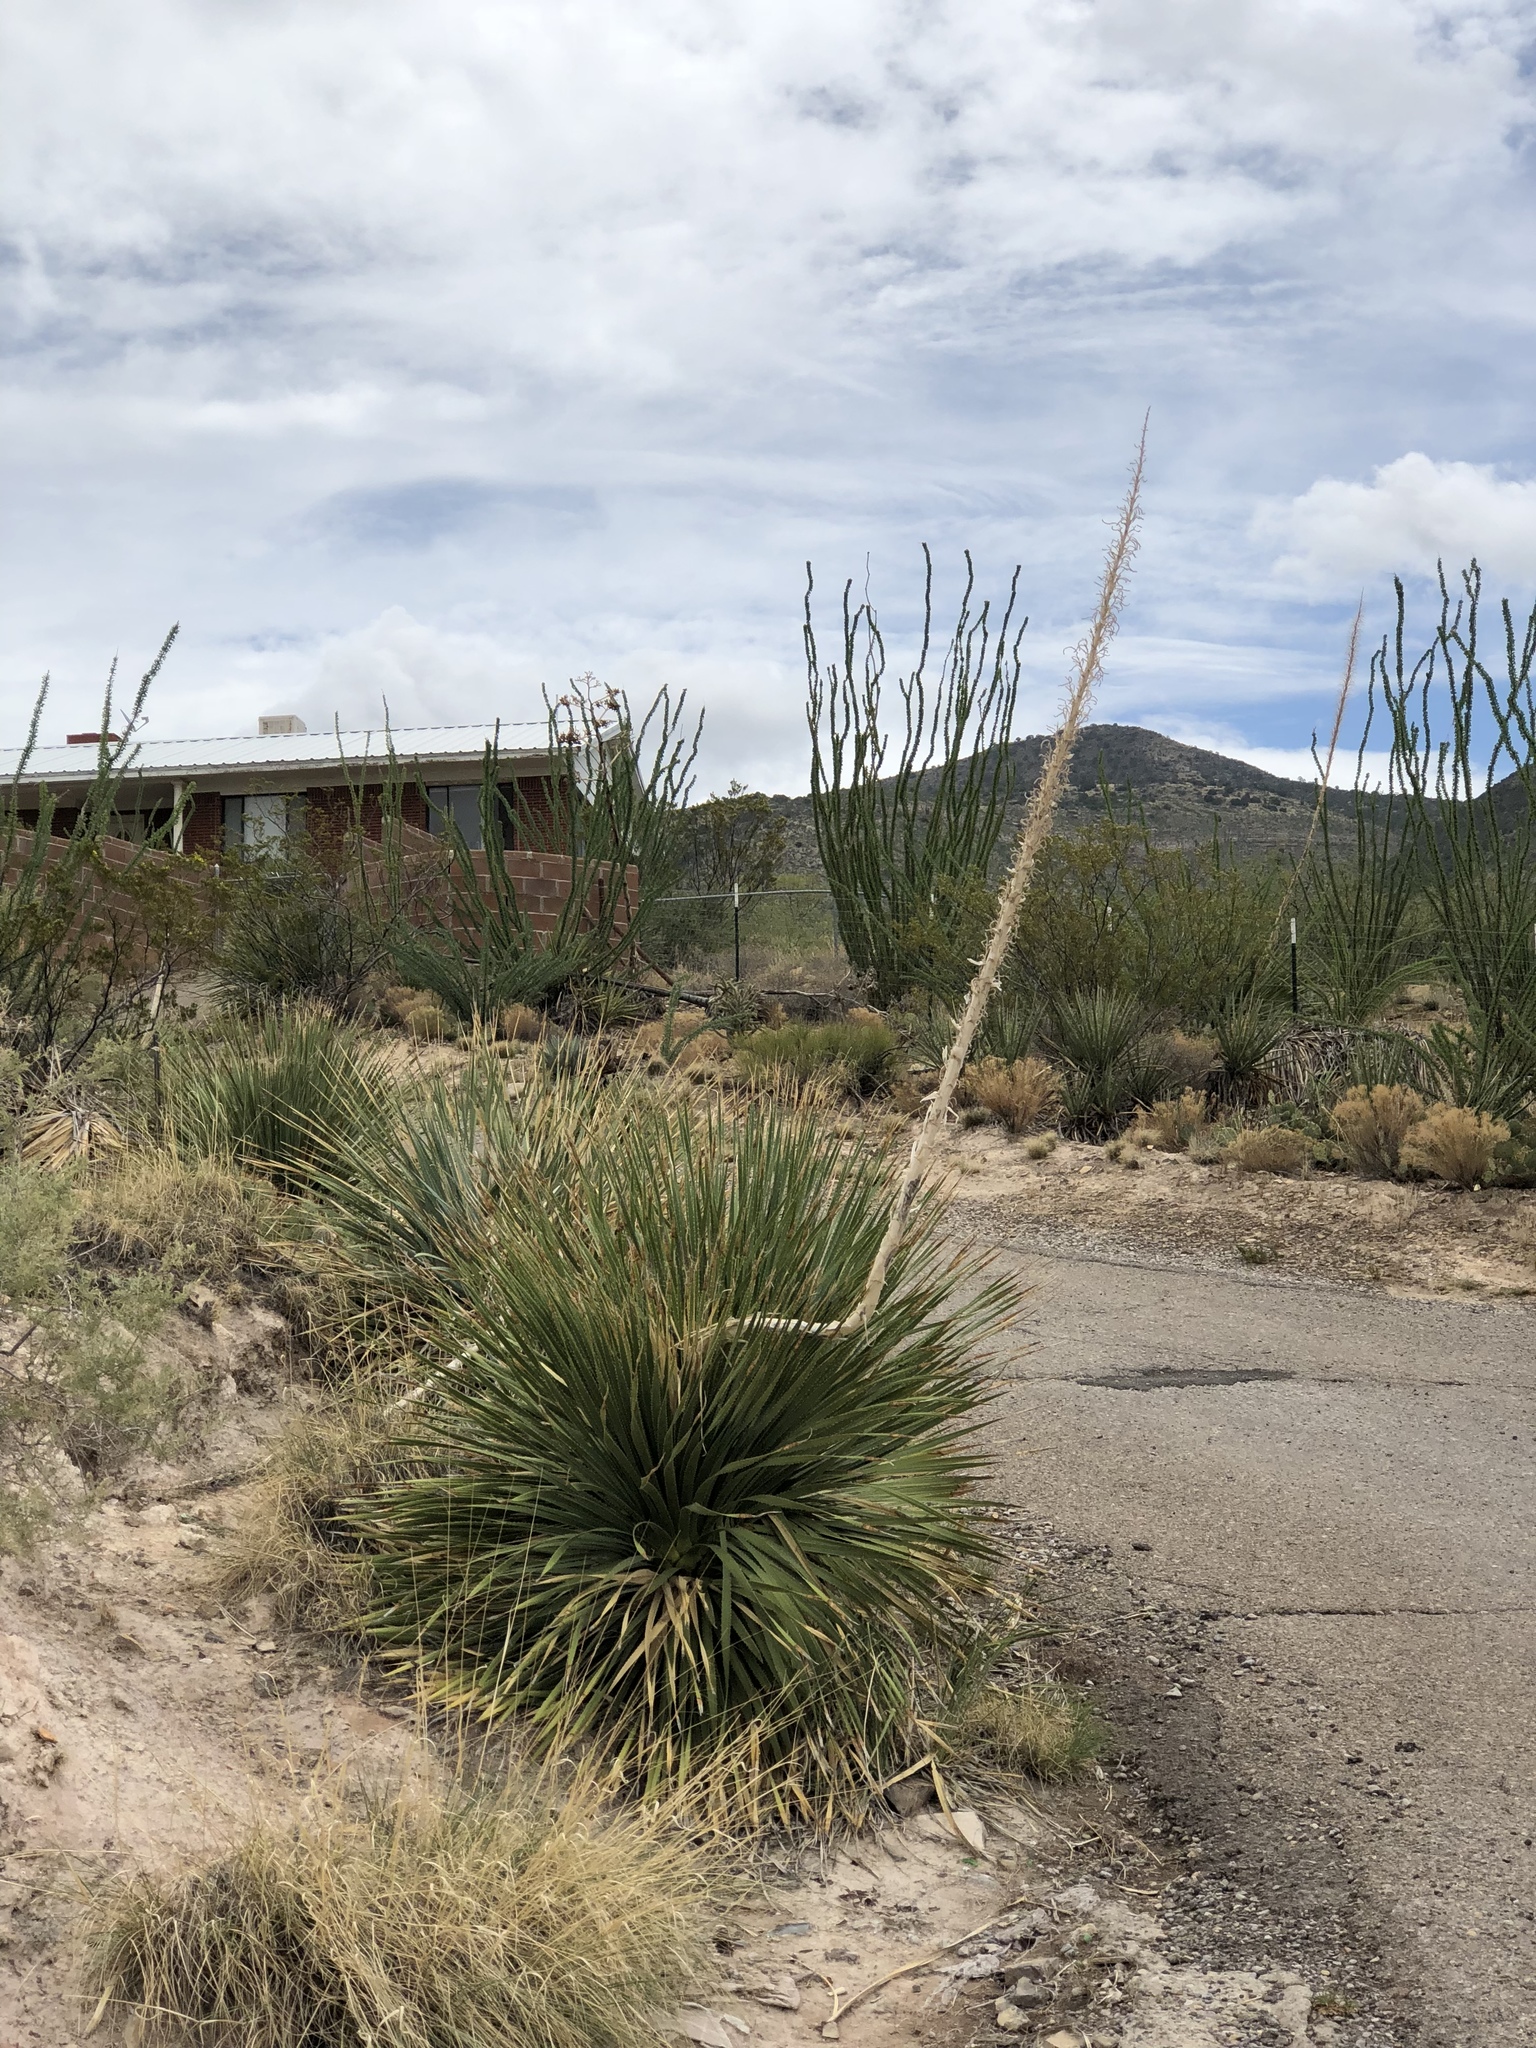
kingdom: Plantae
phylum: Tracheophyta
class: Liliopsida
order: Asparagales
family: Asparagaceae
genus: Dasylirion
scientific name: Dasylirion wheeleri
